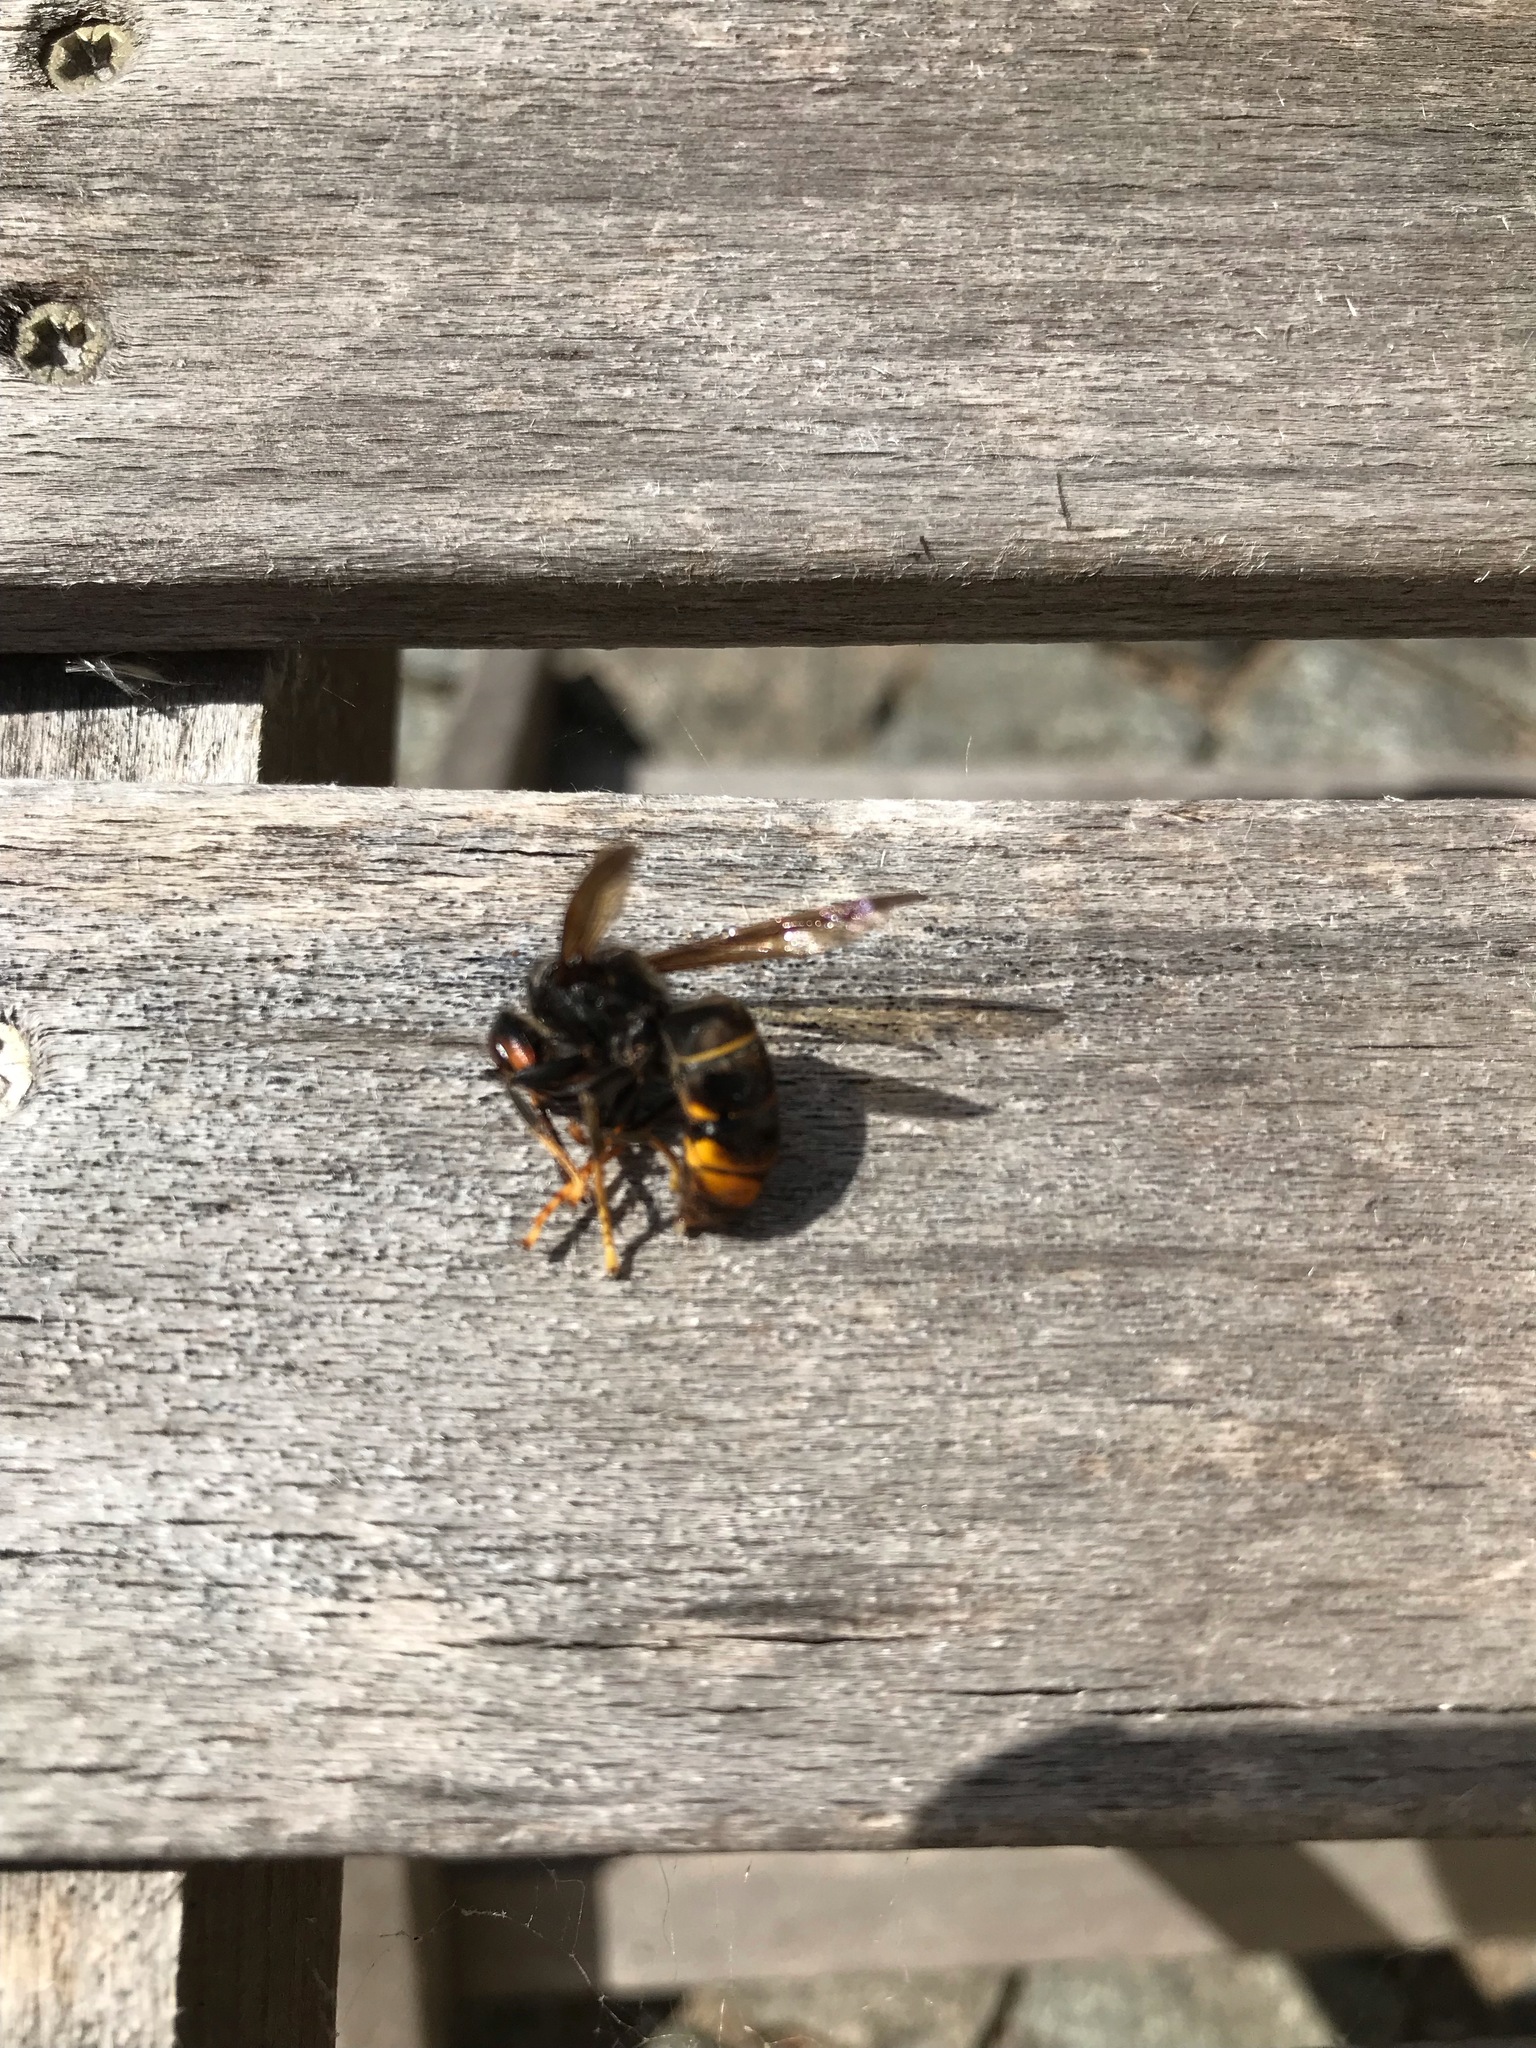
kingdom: Animalia
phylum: Arthropoda
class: Insecta
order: Hymenoptera
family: Vespidae
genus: Vespa
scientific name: Vespa velutina
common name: Asian hornet
